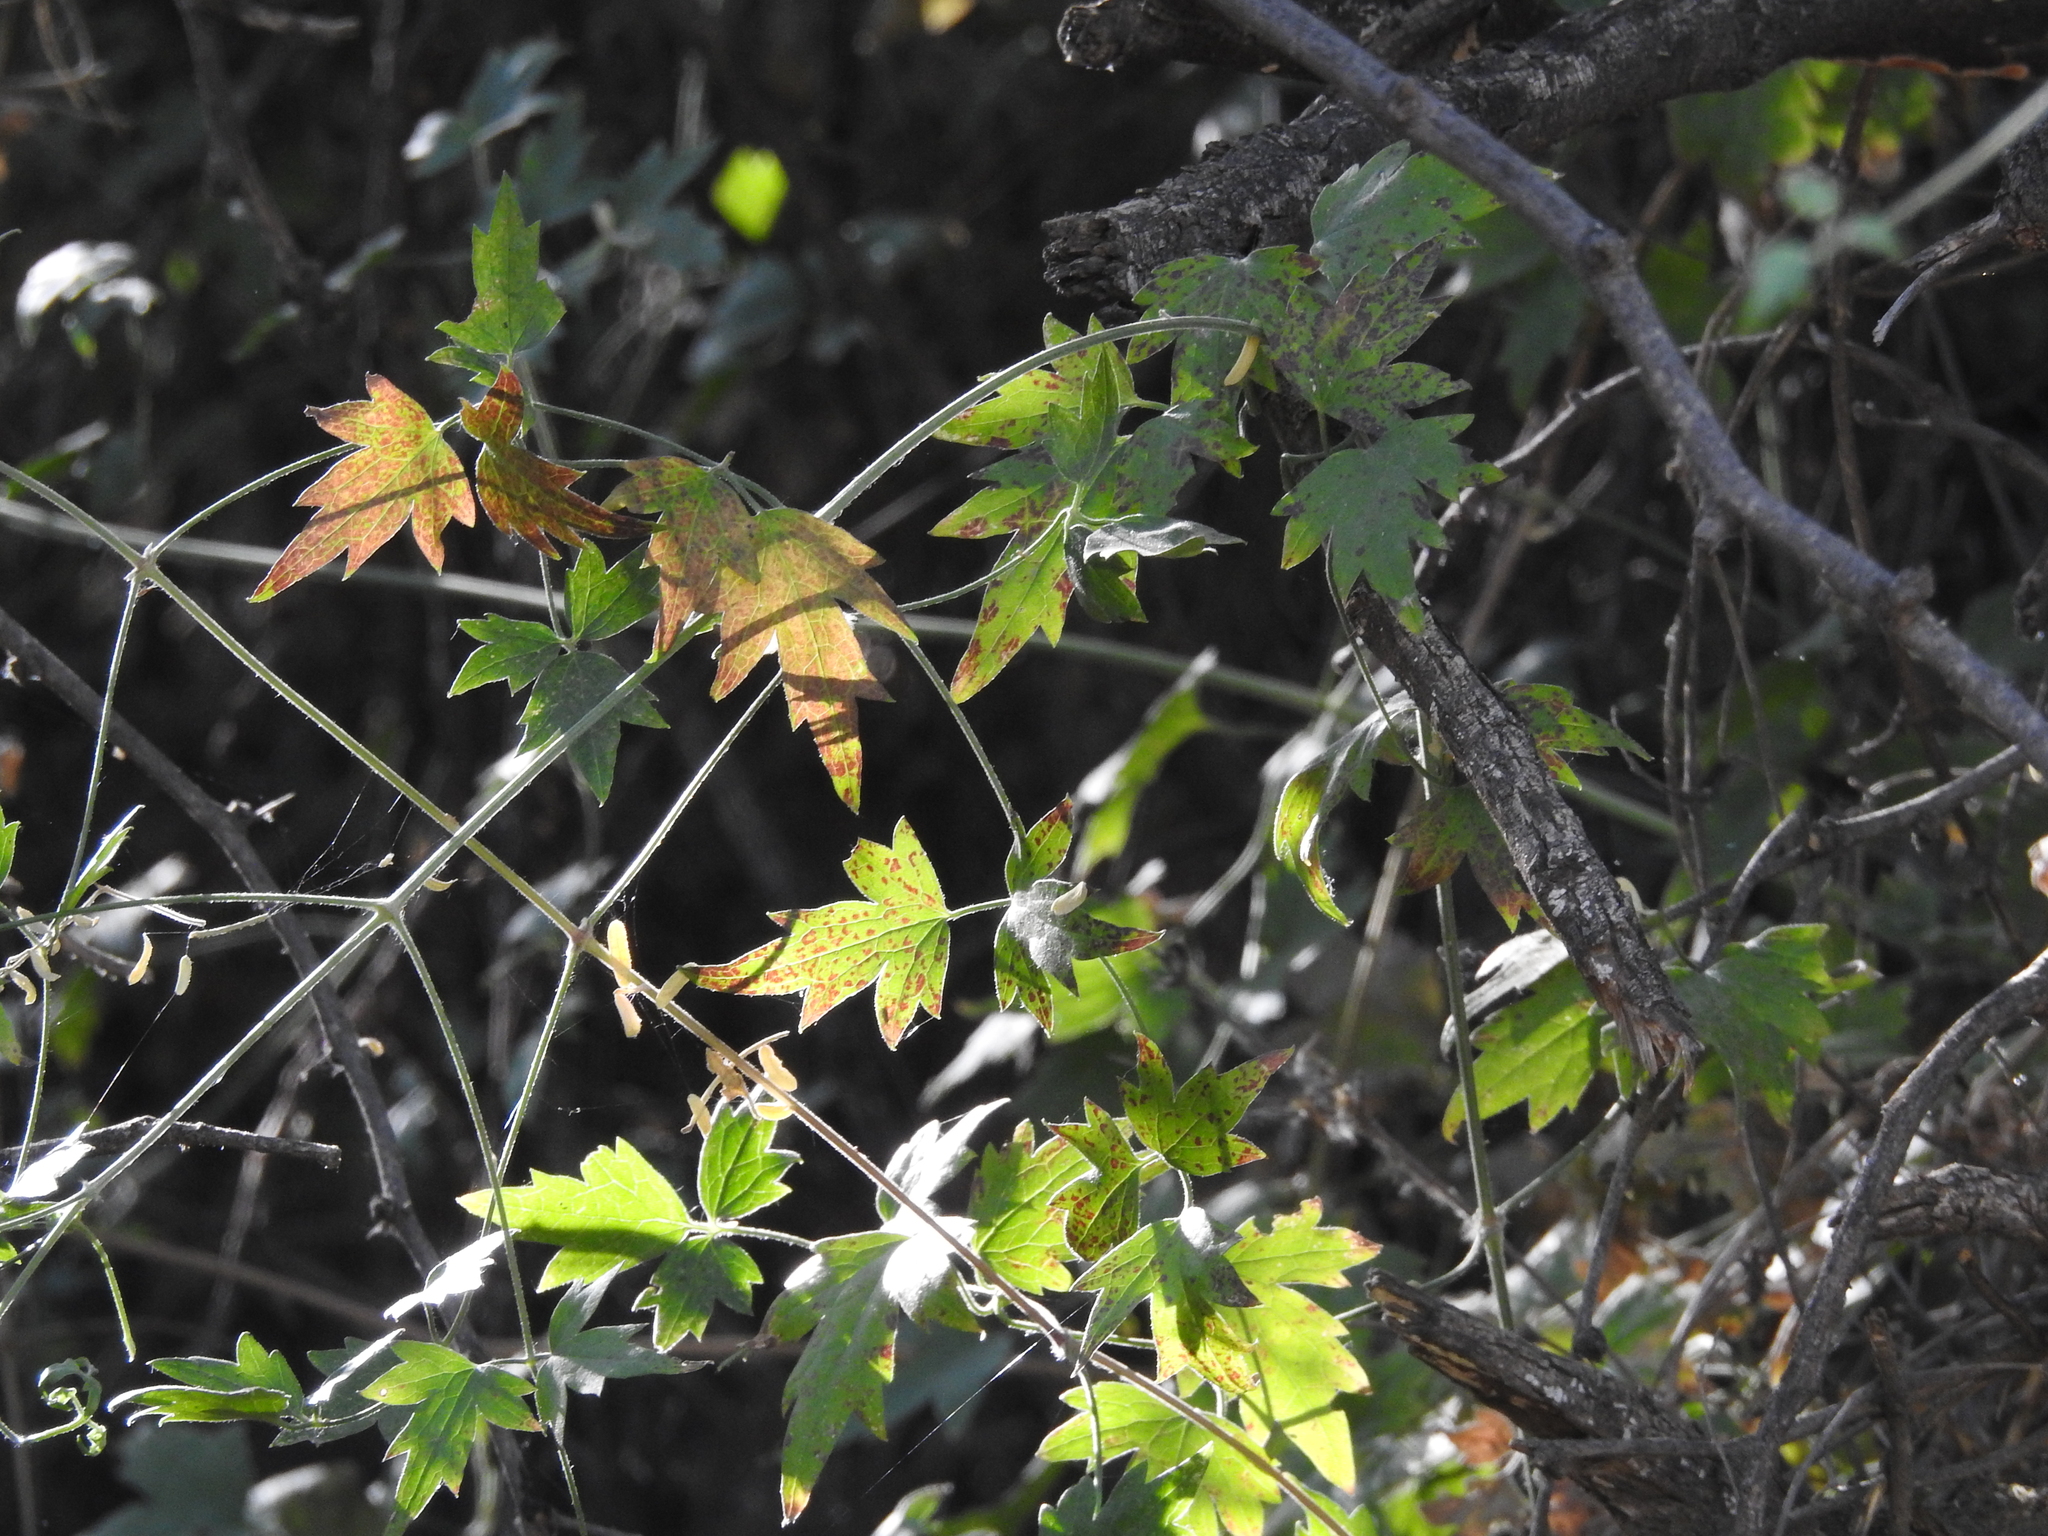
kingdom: Plantae
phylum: Tracheophyta
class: Magnoliopsida
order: Ranunculales
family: Ranunculaceae
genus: Clematis
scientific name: Clematis drummondii
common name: Texas virgin's bower
